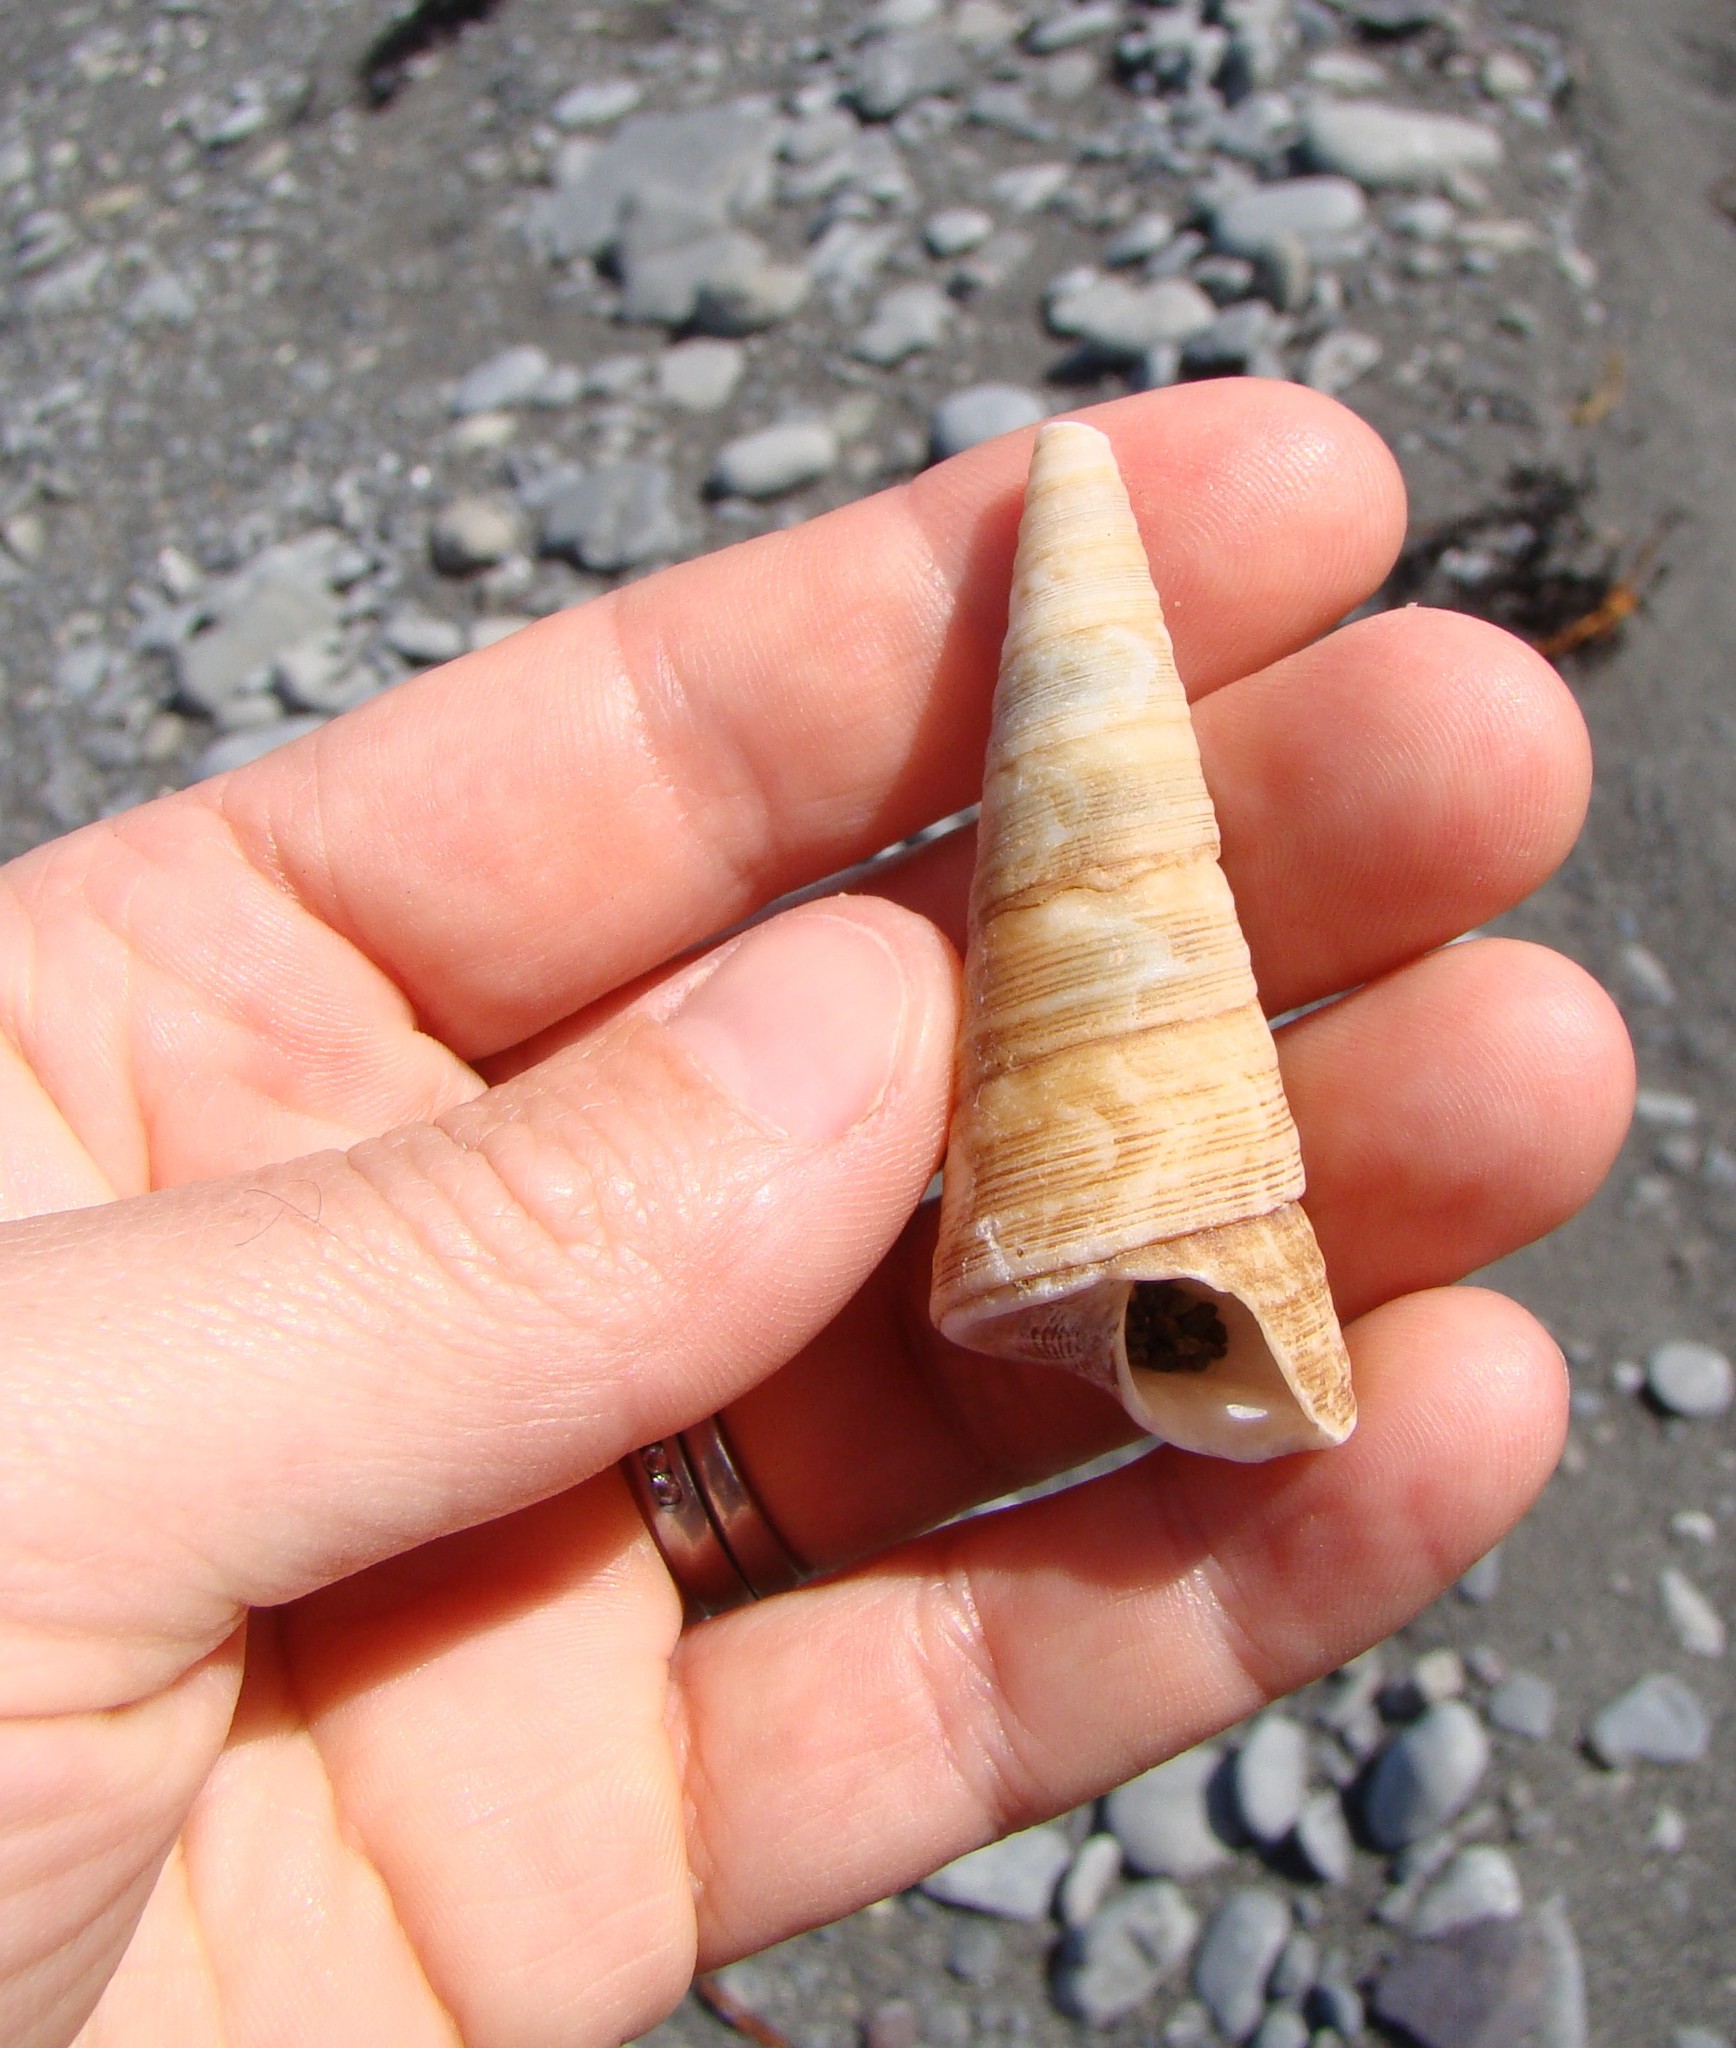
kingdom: Animalia
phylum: Mollusca
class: Gastropoda
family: Turritellidae
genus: Maoricolpus
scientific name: Maoricolpus roseus
